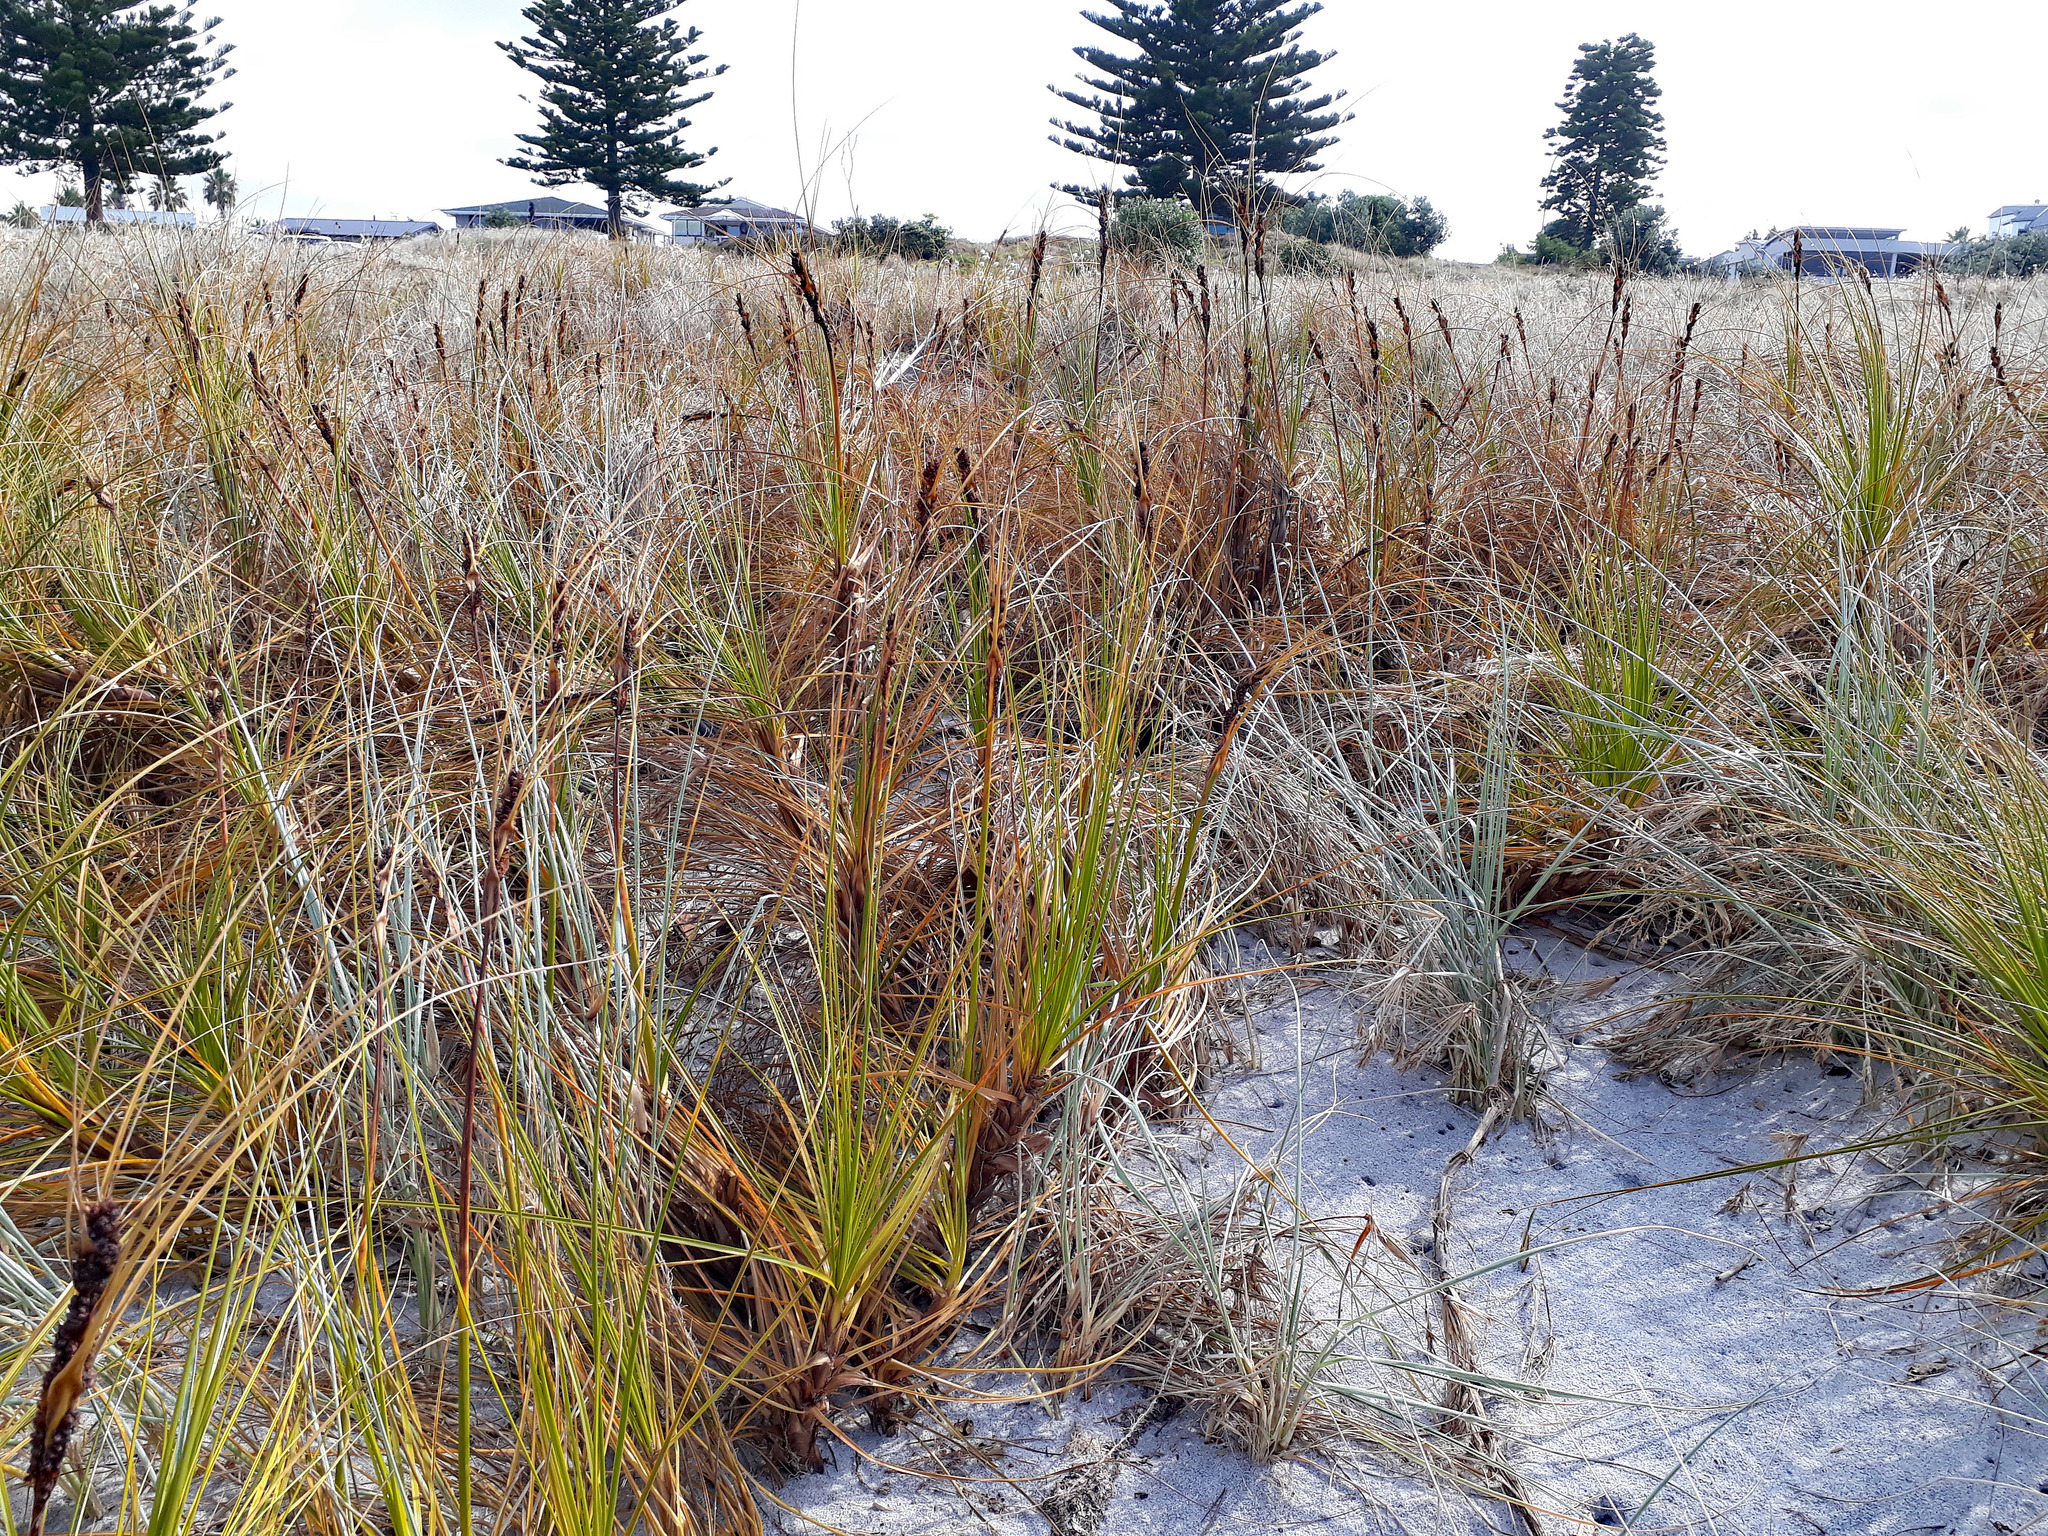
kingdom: Plantae
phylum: Tracheophyta
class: Liliopsida
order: Poales
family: Cyperaceae
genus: Ficinia
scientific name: Ficinia spiralis
